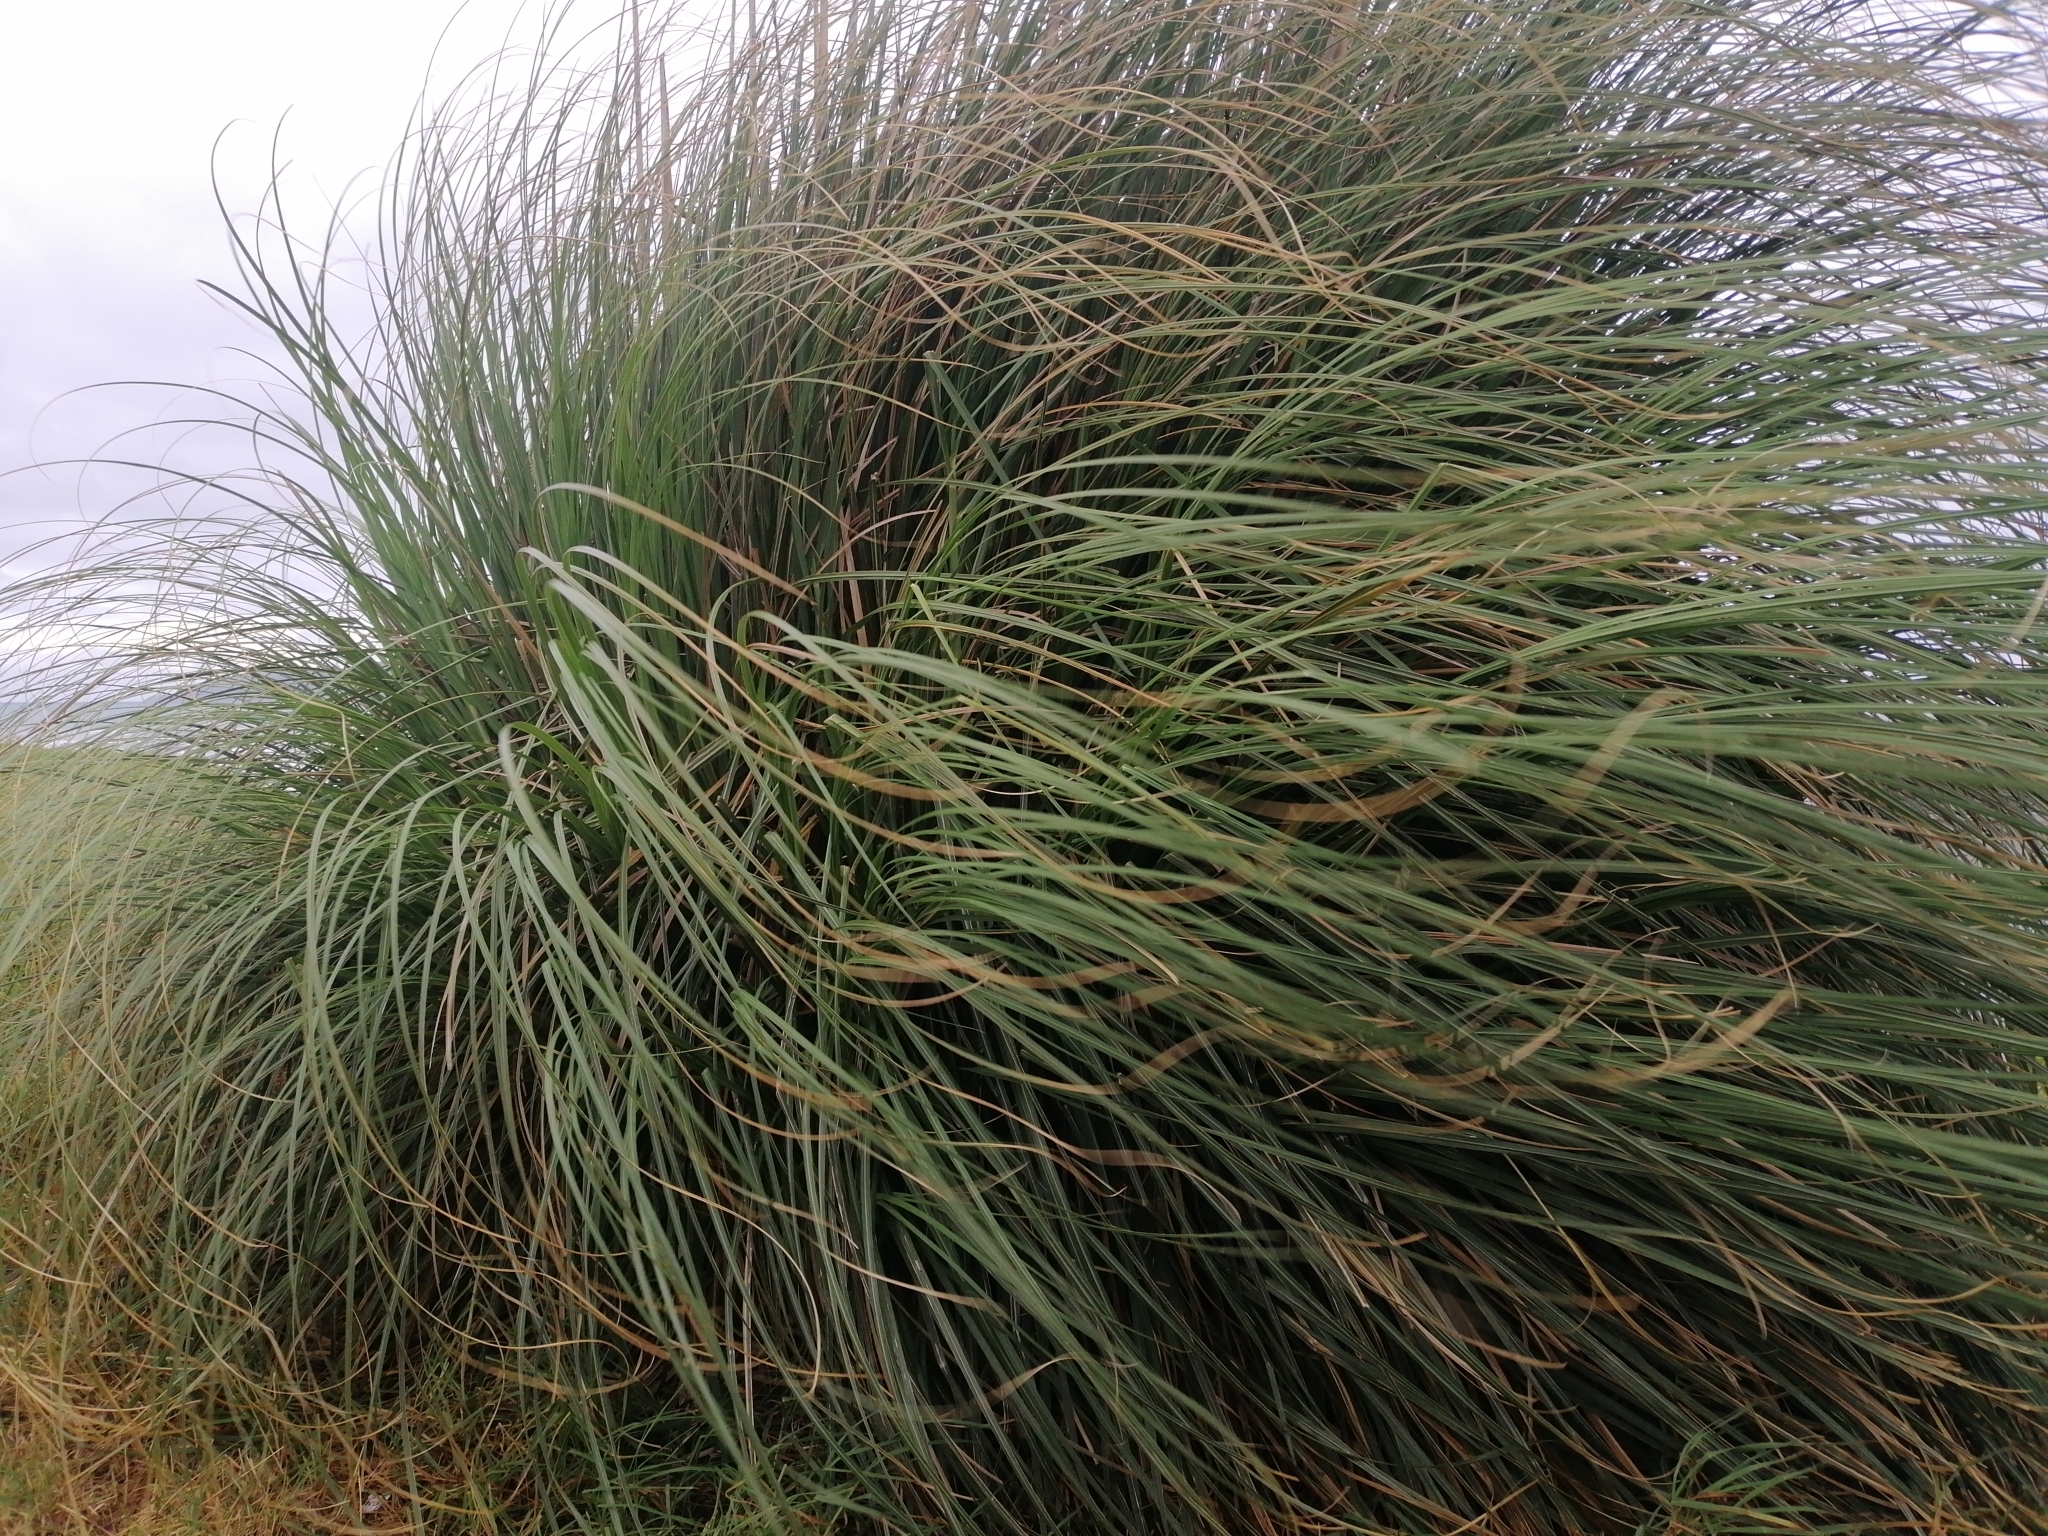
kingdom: Plantae
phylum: Tracheophyta
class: Liliopsida
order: Poales
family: Poaceae
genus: Cortaderia
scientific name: Cortaderia jubata
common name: Purple pampas grass
